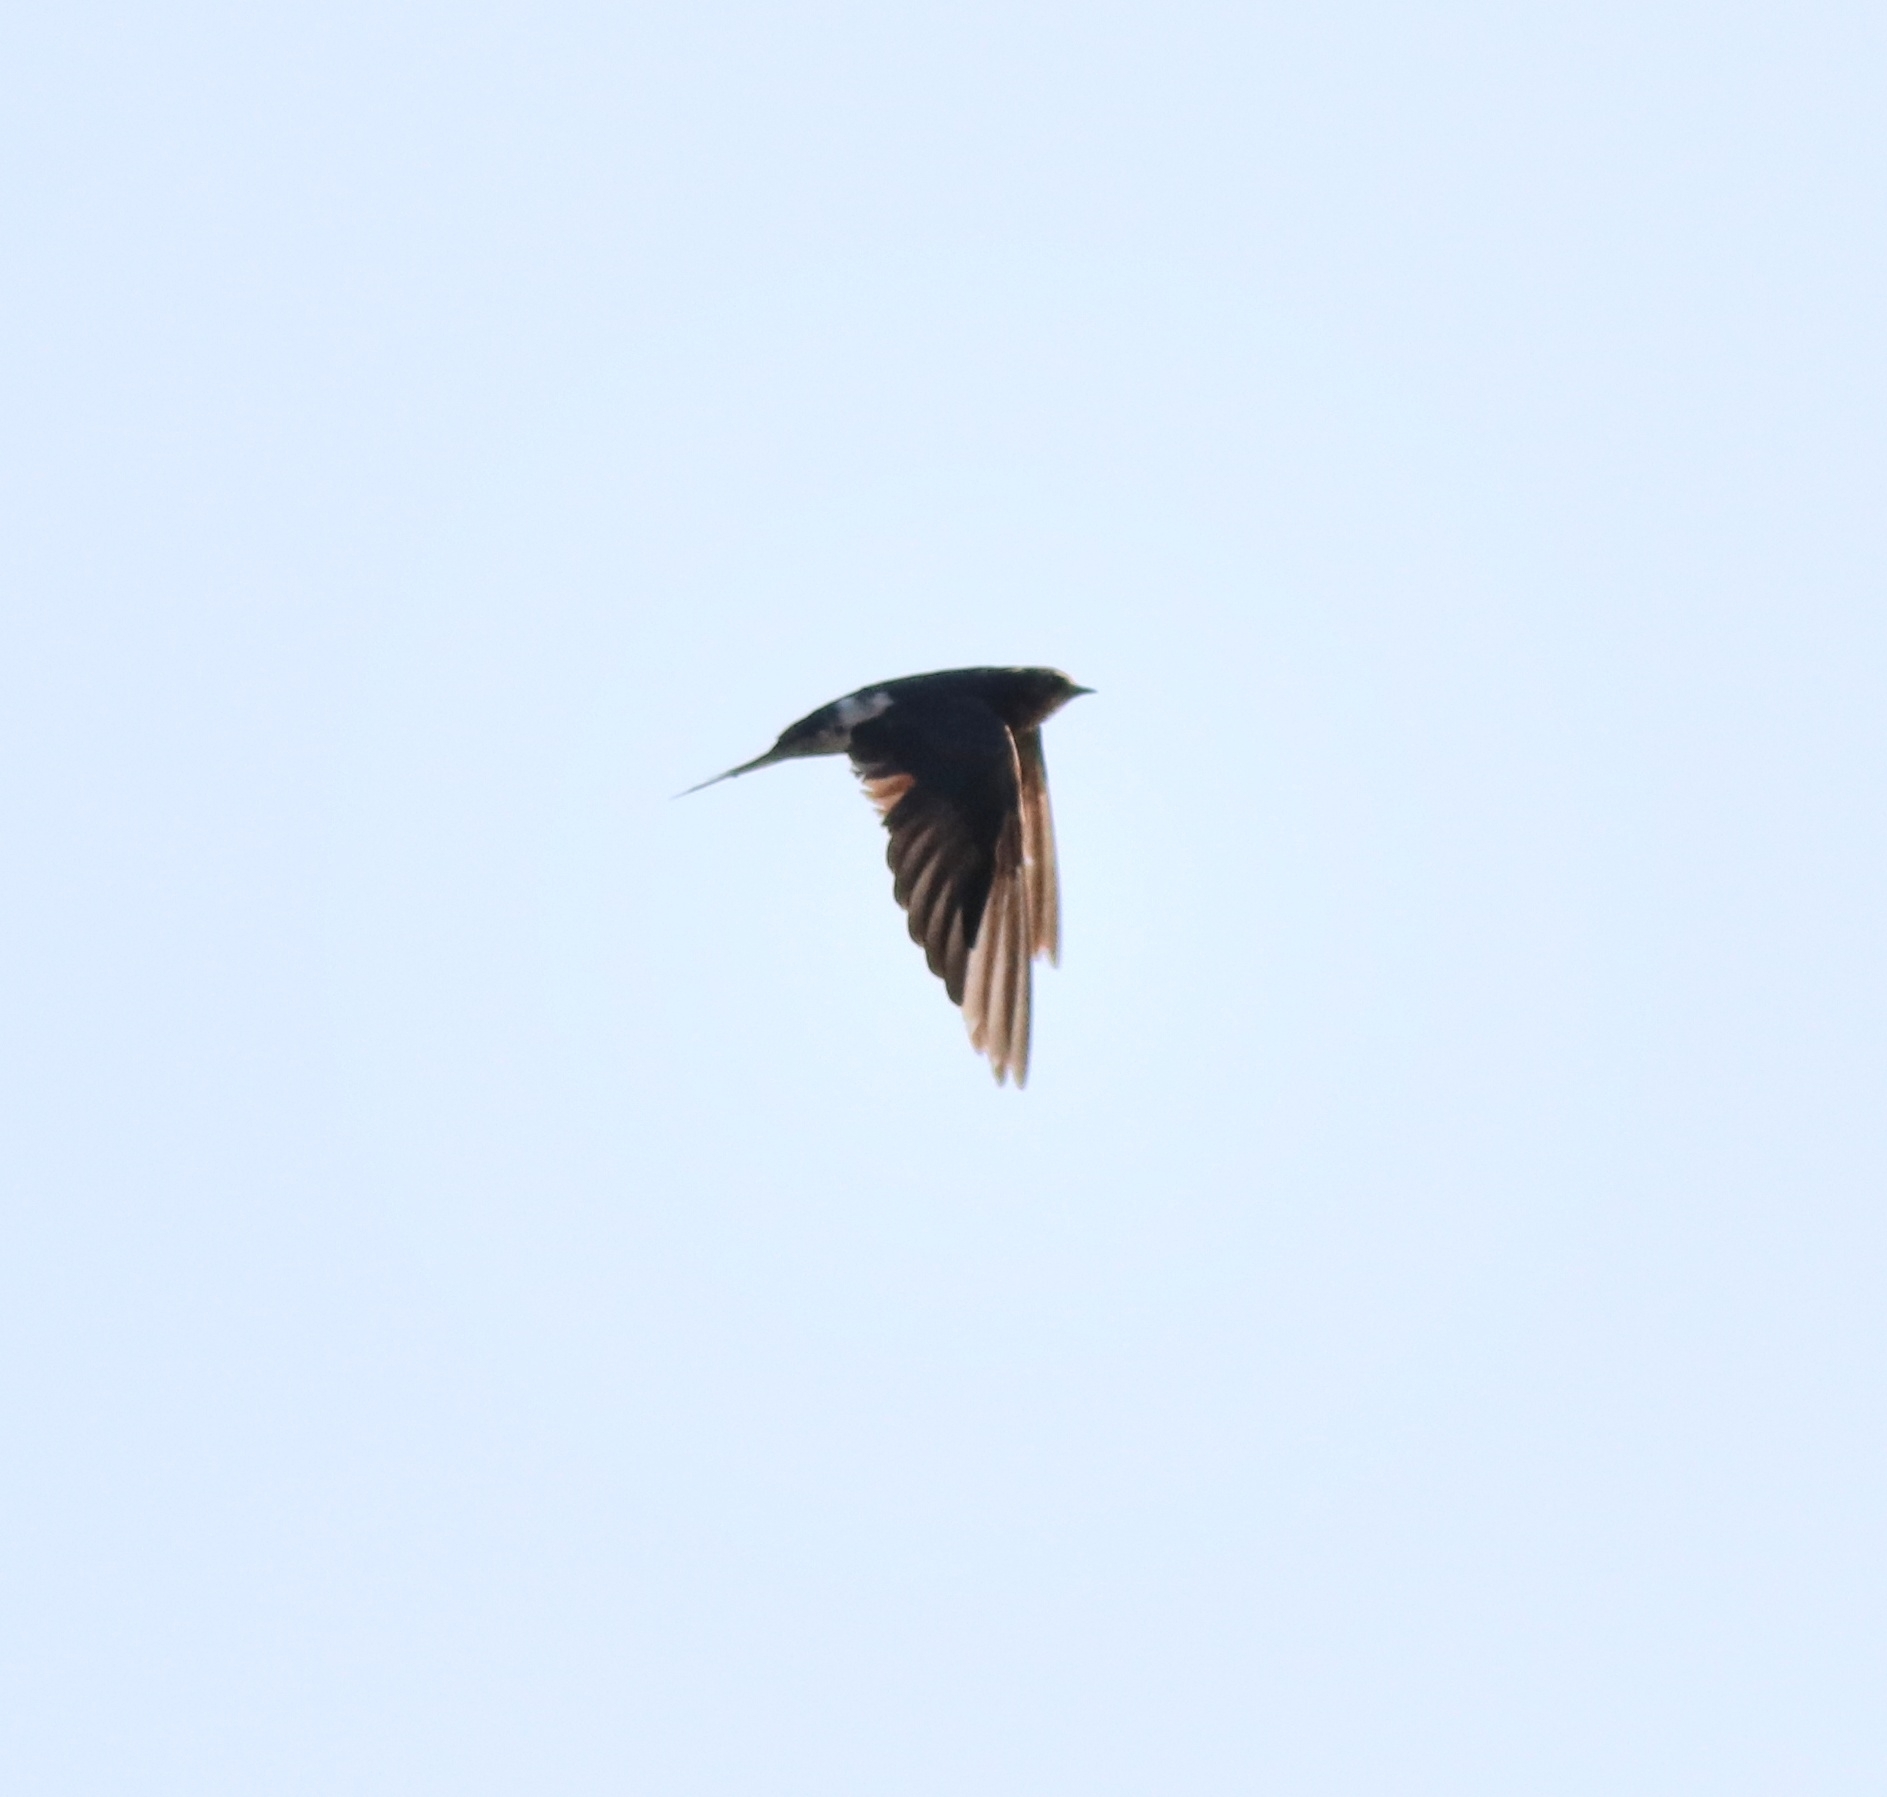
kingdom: Animalia
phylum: Chordata
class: Aves
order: Passeriformes
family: Hirundinidae
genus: Hirundo
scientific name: Hirundo rustica
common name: Barn swallow
